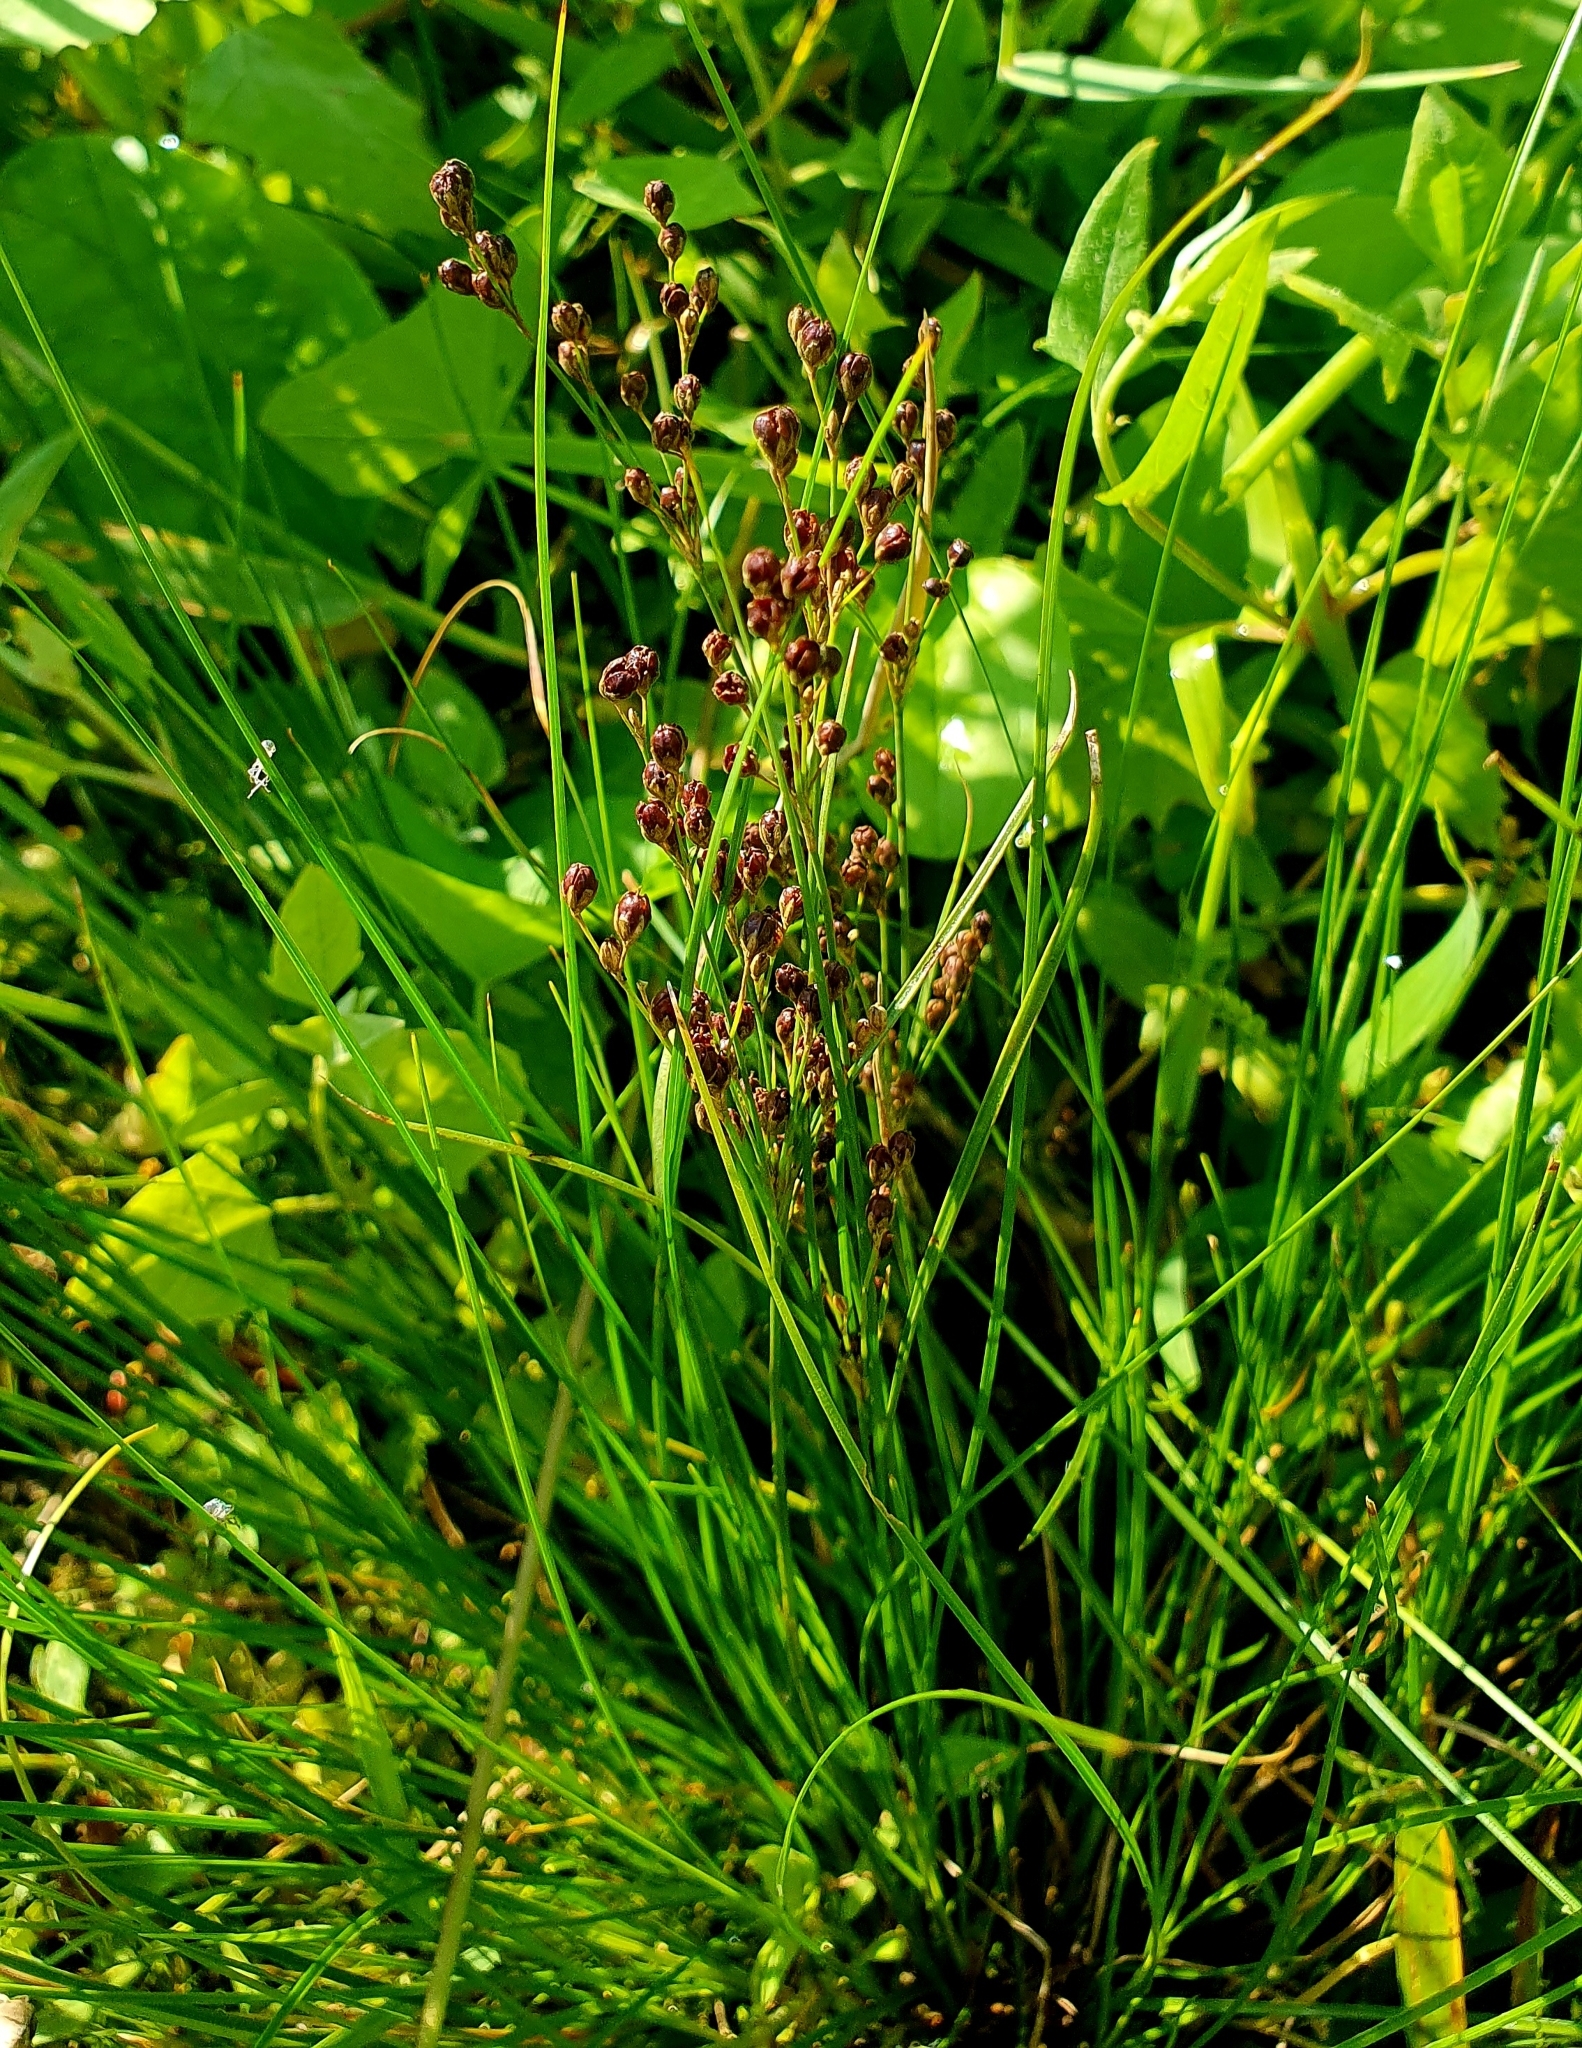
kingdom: Plantae
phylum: Tracheophyta
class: Liliopsida
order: Poales
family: Juncaceae
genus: Juncus
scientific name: Juncus compressus
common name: Round-fruited rush
